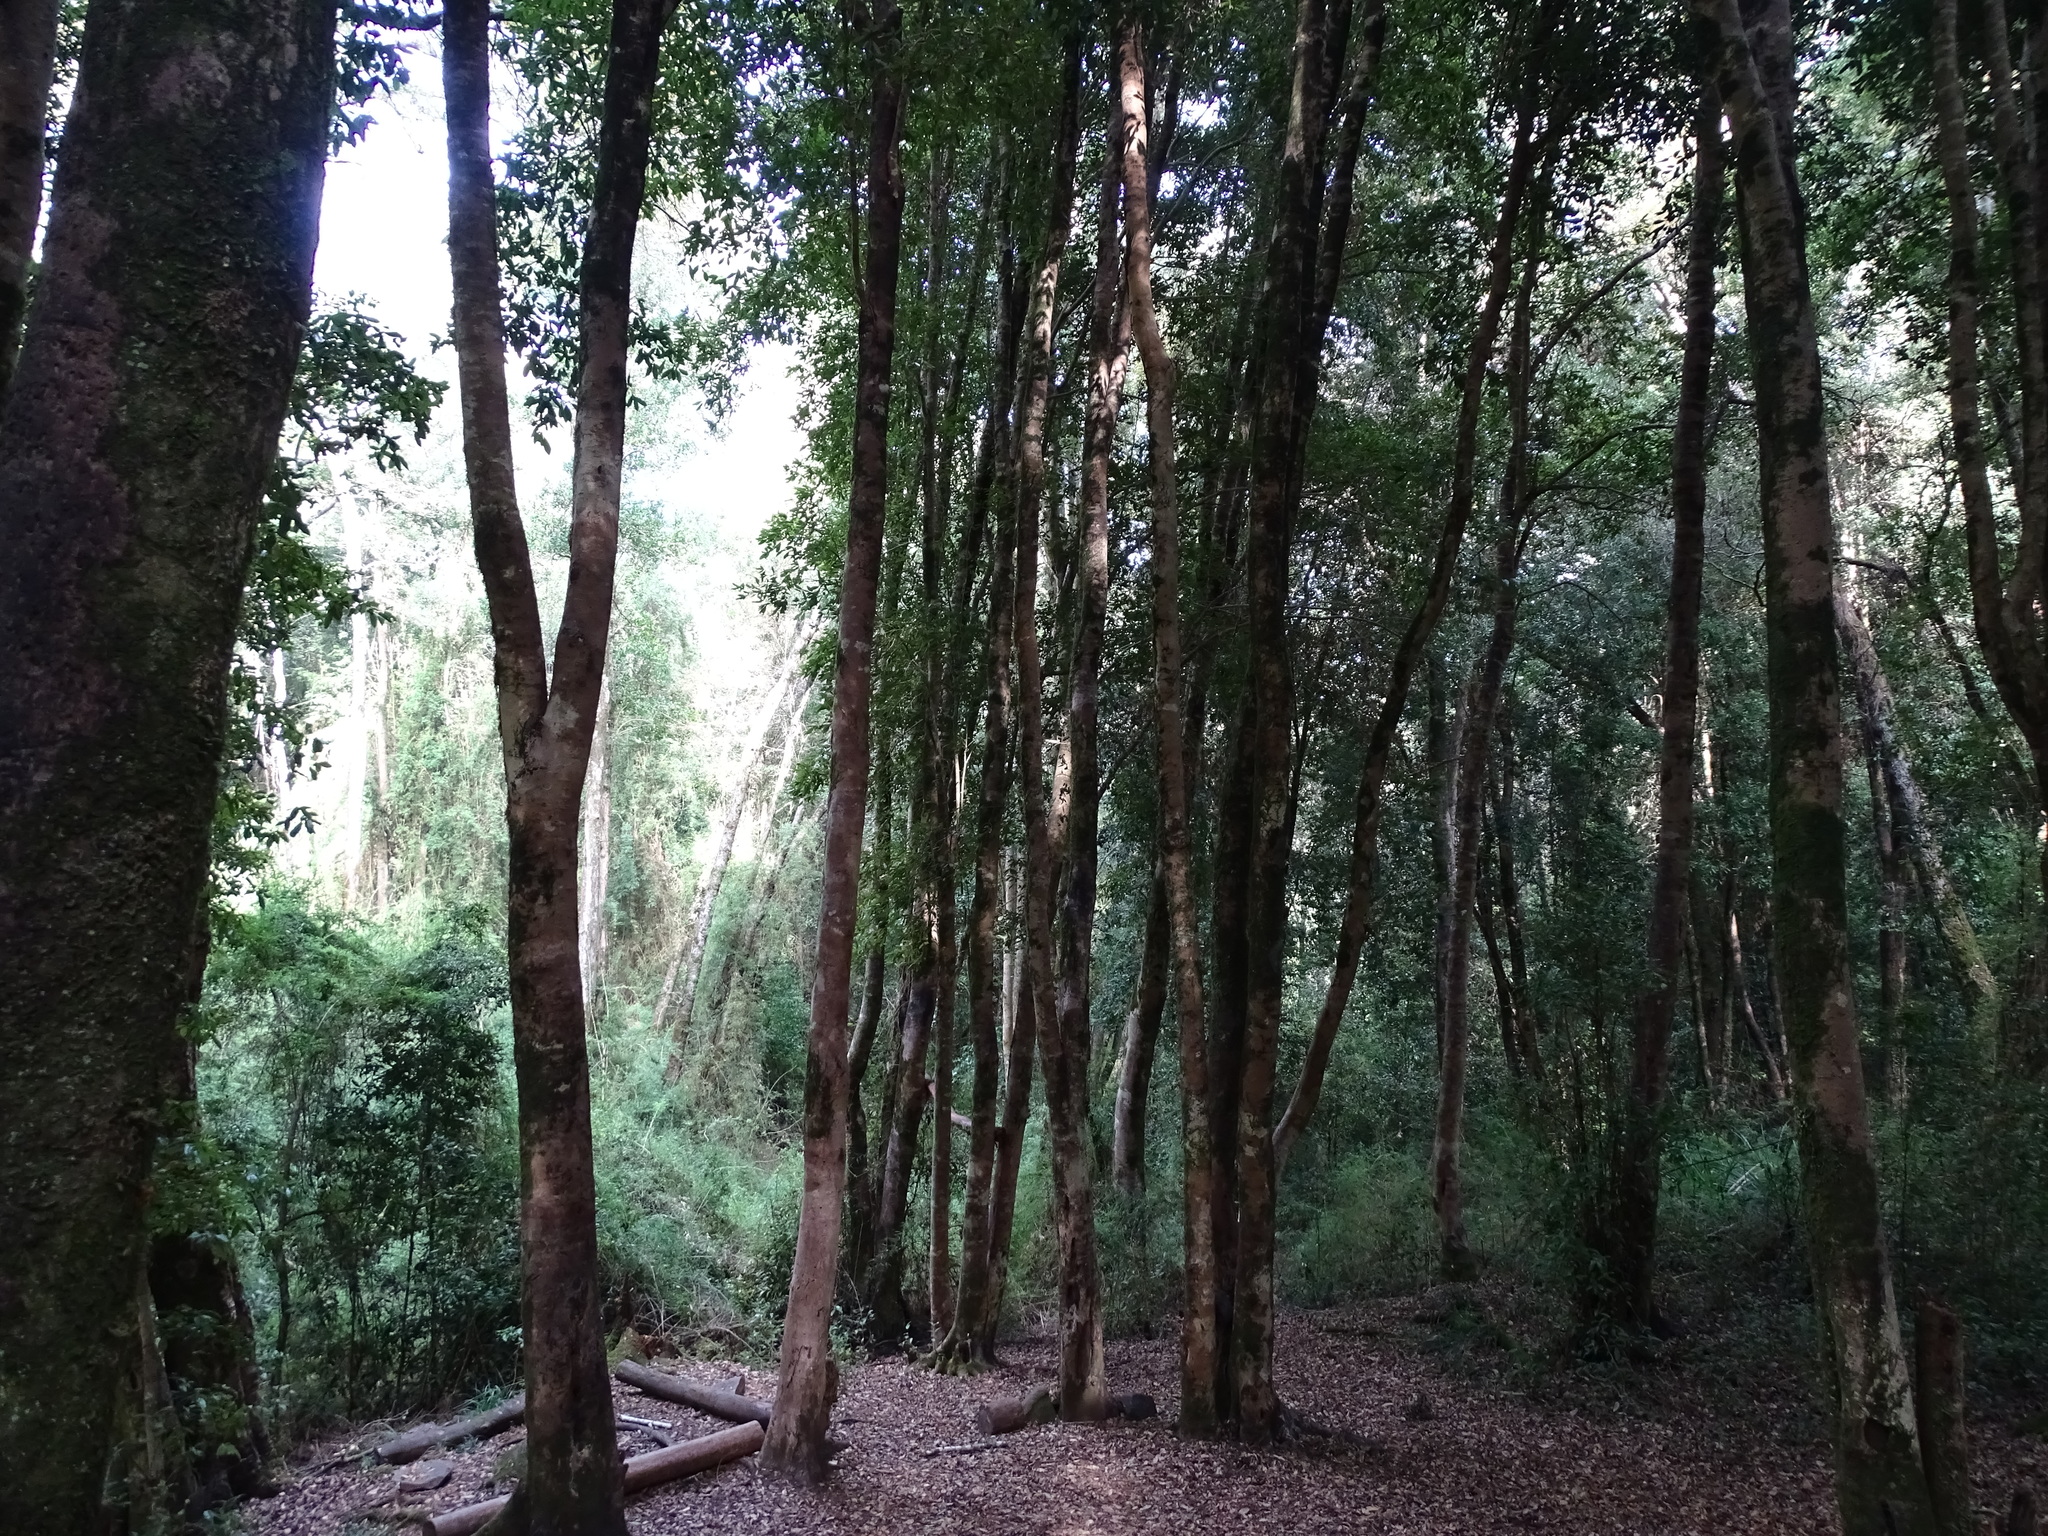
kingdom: Plantae
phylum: Tracheophyta
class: Magnoliopsida
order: Berberidopsidales
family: Aextoxicaceae
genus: Aextoxicon
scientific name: Aextoxicon punctatum
